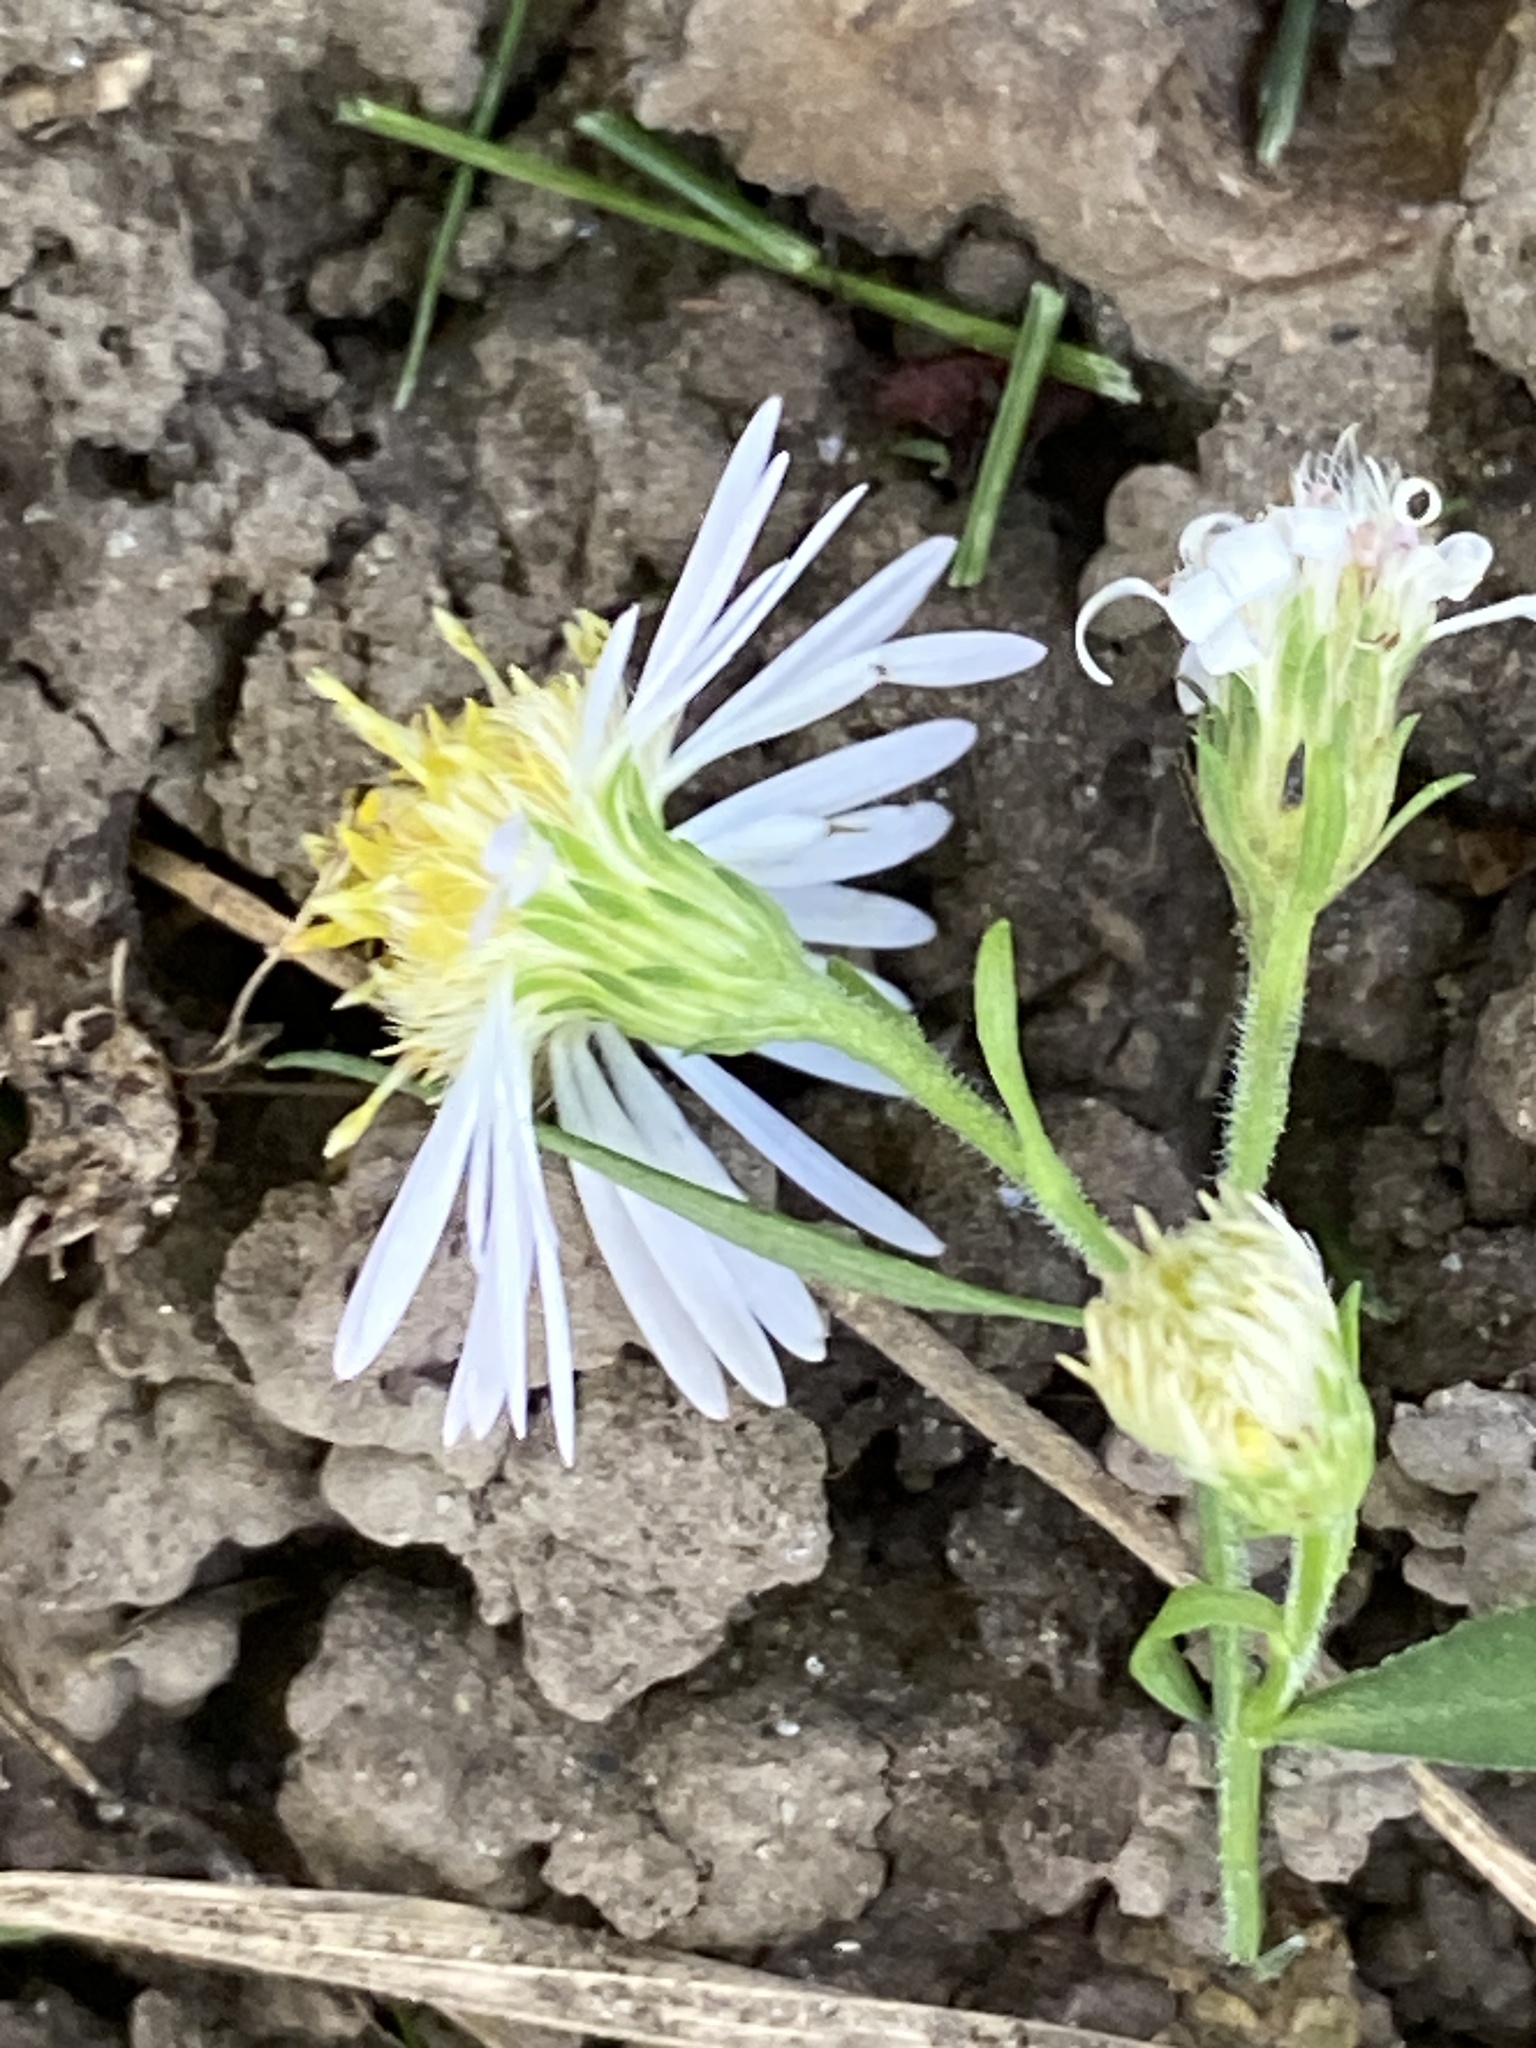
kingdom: Plantae
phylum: Tracheophyta
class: Magnoliopsida
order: Asterales
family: Asteraceae
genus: Symphyotrichum
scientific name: Symphyotrichum lanceolatum
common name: Panicled aster
